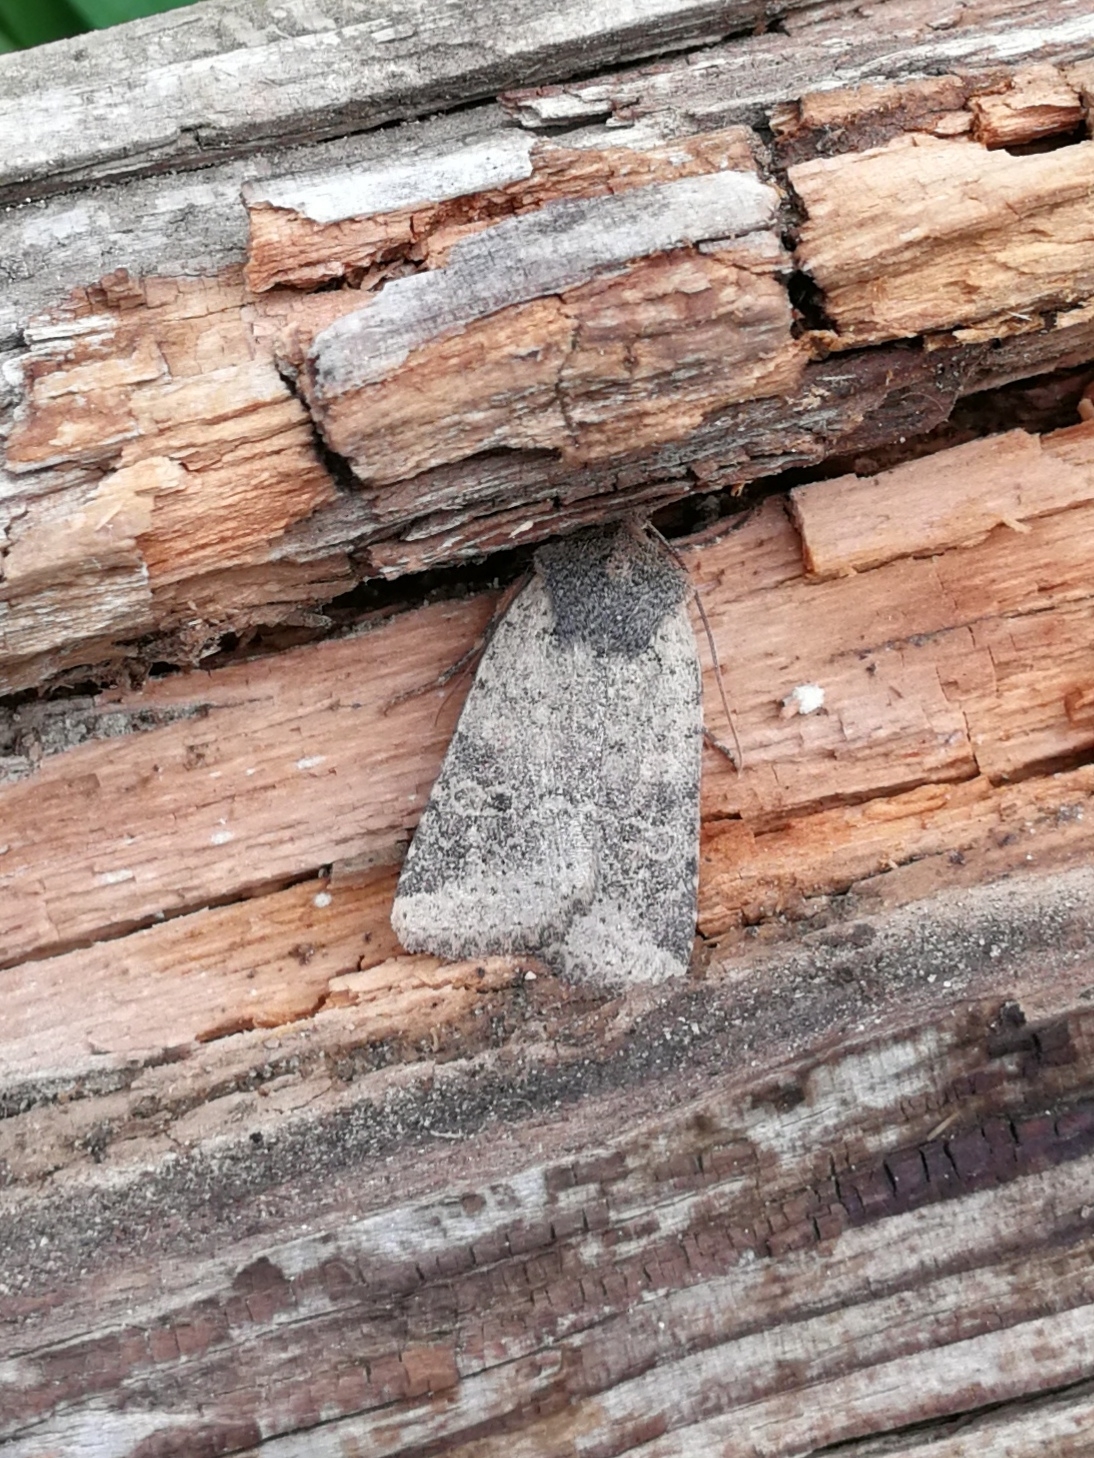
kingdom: Animalia
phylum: Arthropoda
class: Insecta
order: Lepidoptera
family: Noctuidae
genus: Agrochola
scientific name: Agrochola ruticilla
